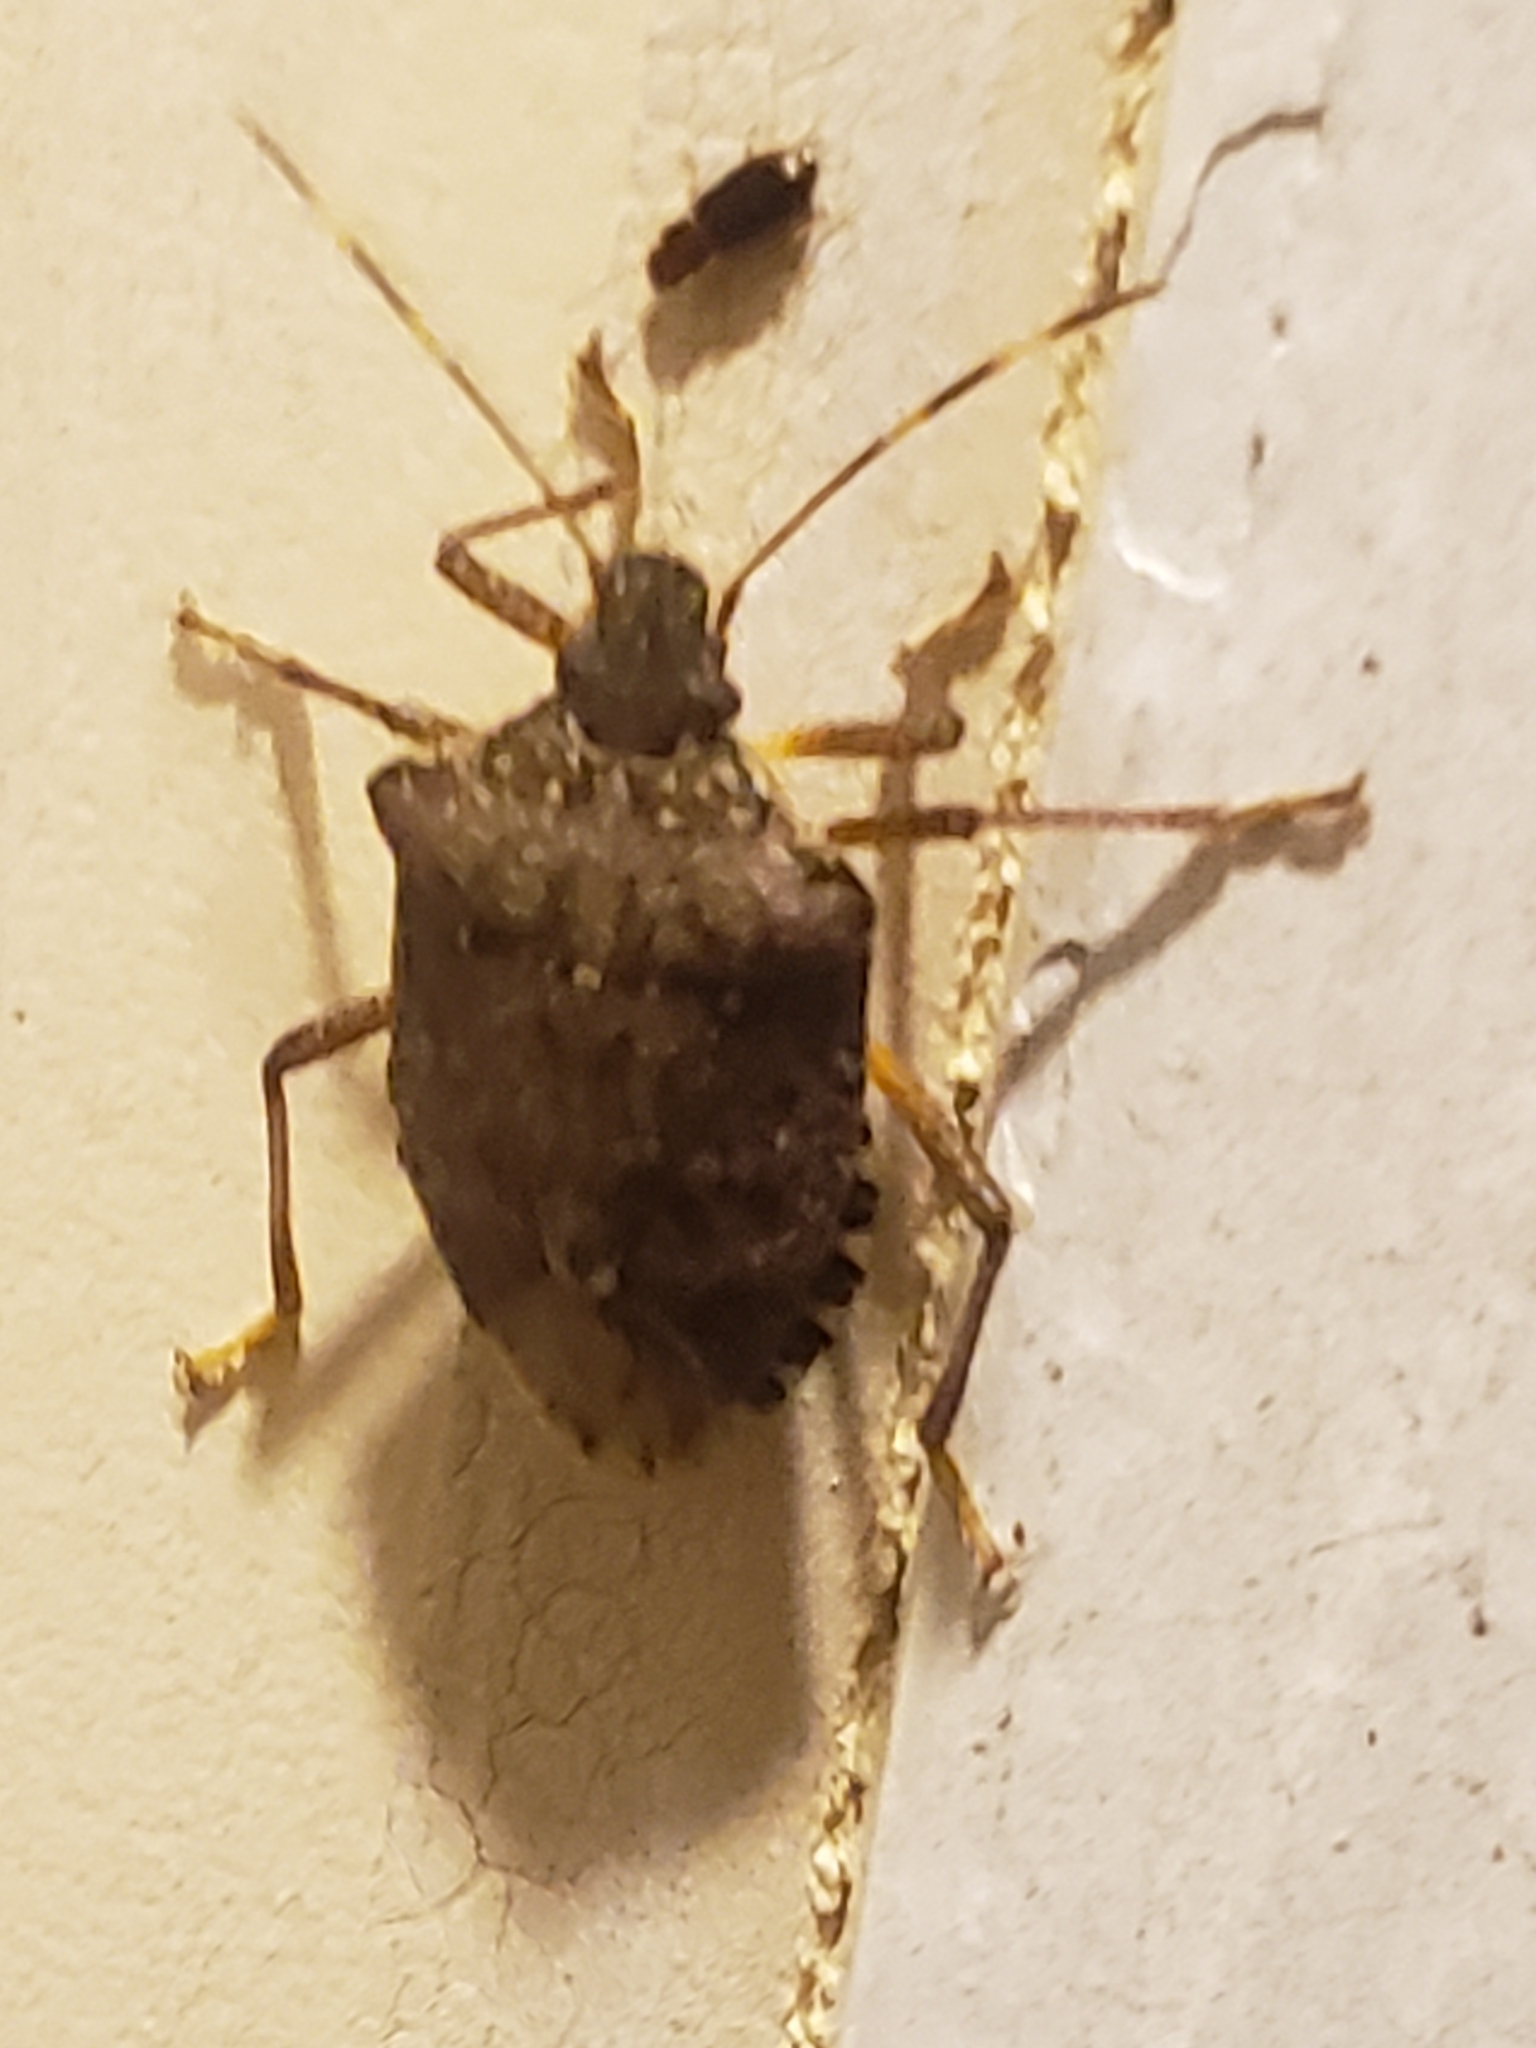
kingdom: Animalia
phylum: Arthropoda
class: Insecta
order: Hemiptera
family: Pentatomidae
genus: Halyomorpha
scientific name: Halyomorpha halys
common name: Brown marmorated stink bug
